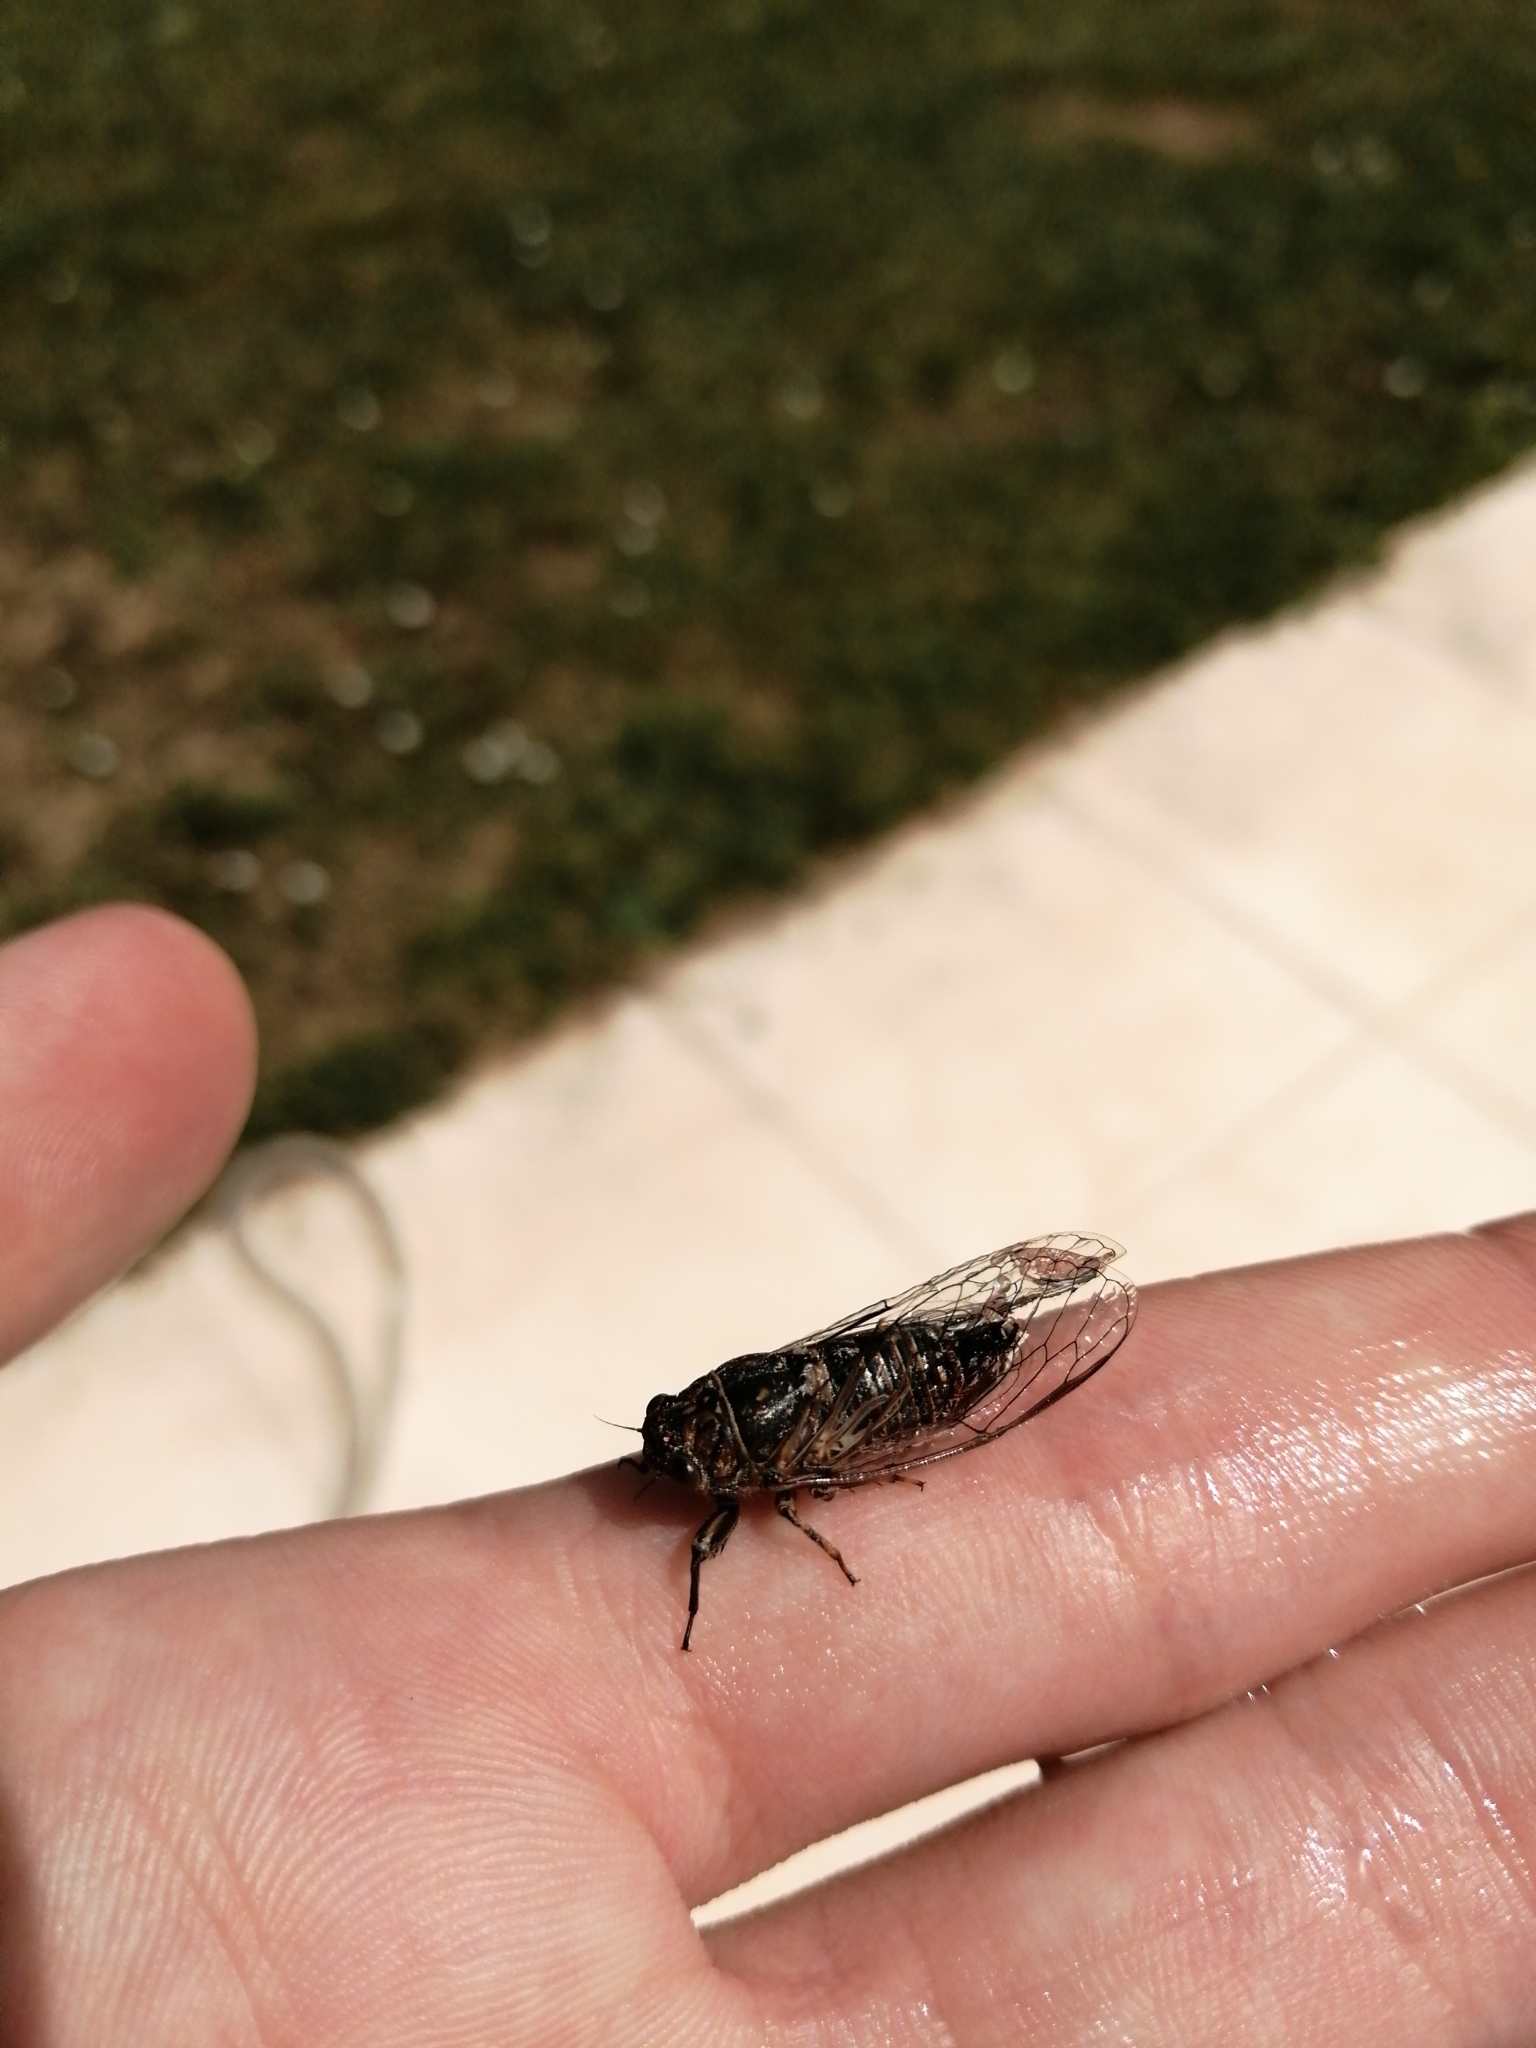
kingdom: Animalia
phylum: Arthropoda
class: Insecta
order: Hemiptera
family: Cicadidae
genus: Tettigettalna
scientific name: Tettigettalna argentata
